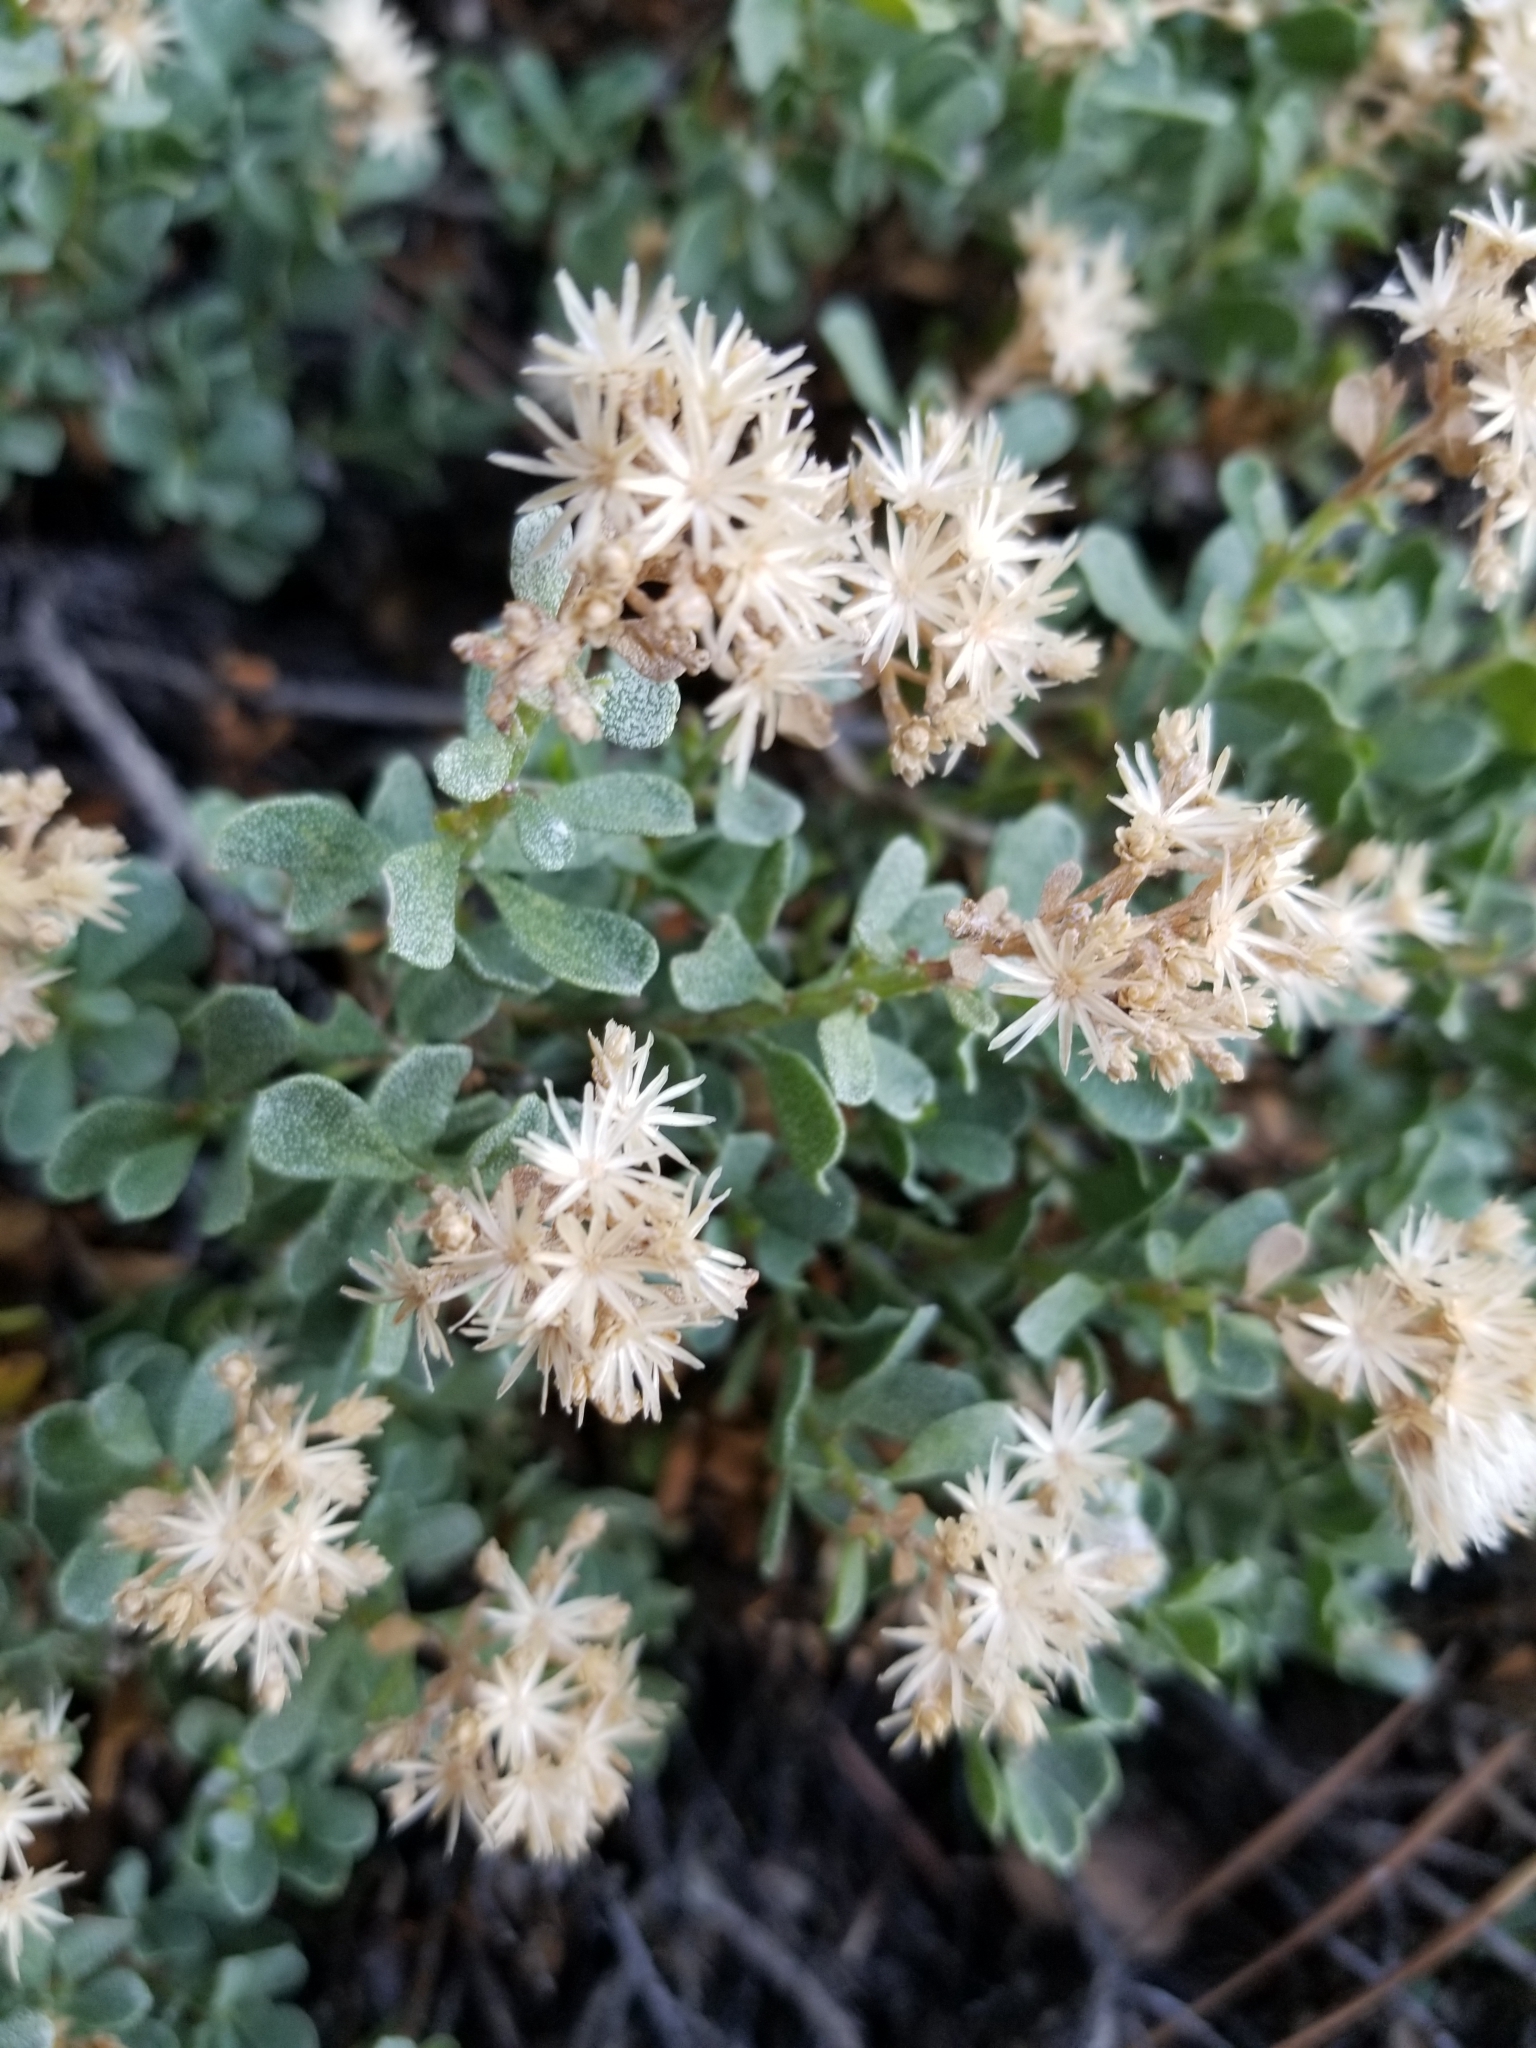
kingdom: Plantae
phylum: Tracheophyta
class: Magnoliopsida
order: Asterales
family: Asteraceae
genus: Ericameria
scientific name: Ericameria cuneata
